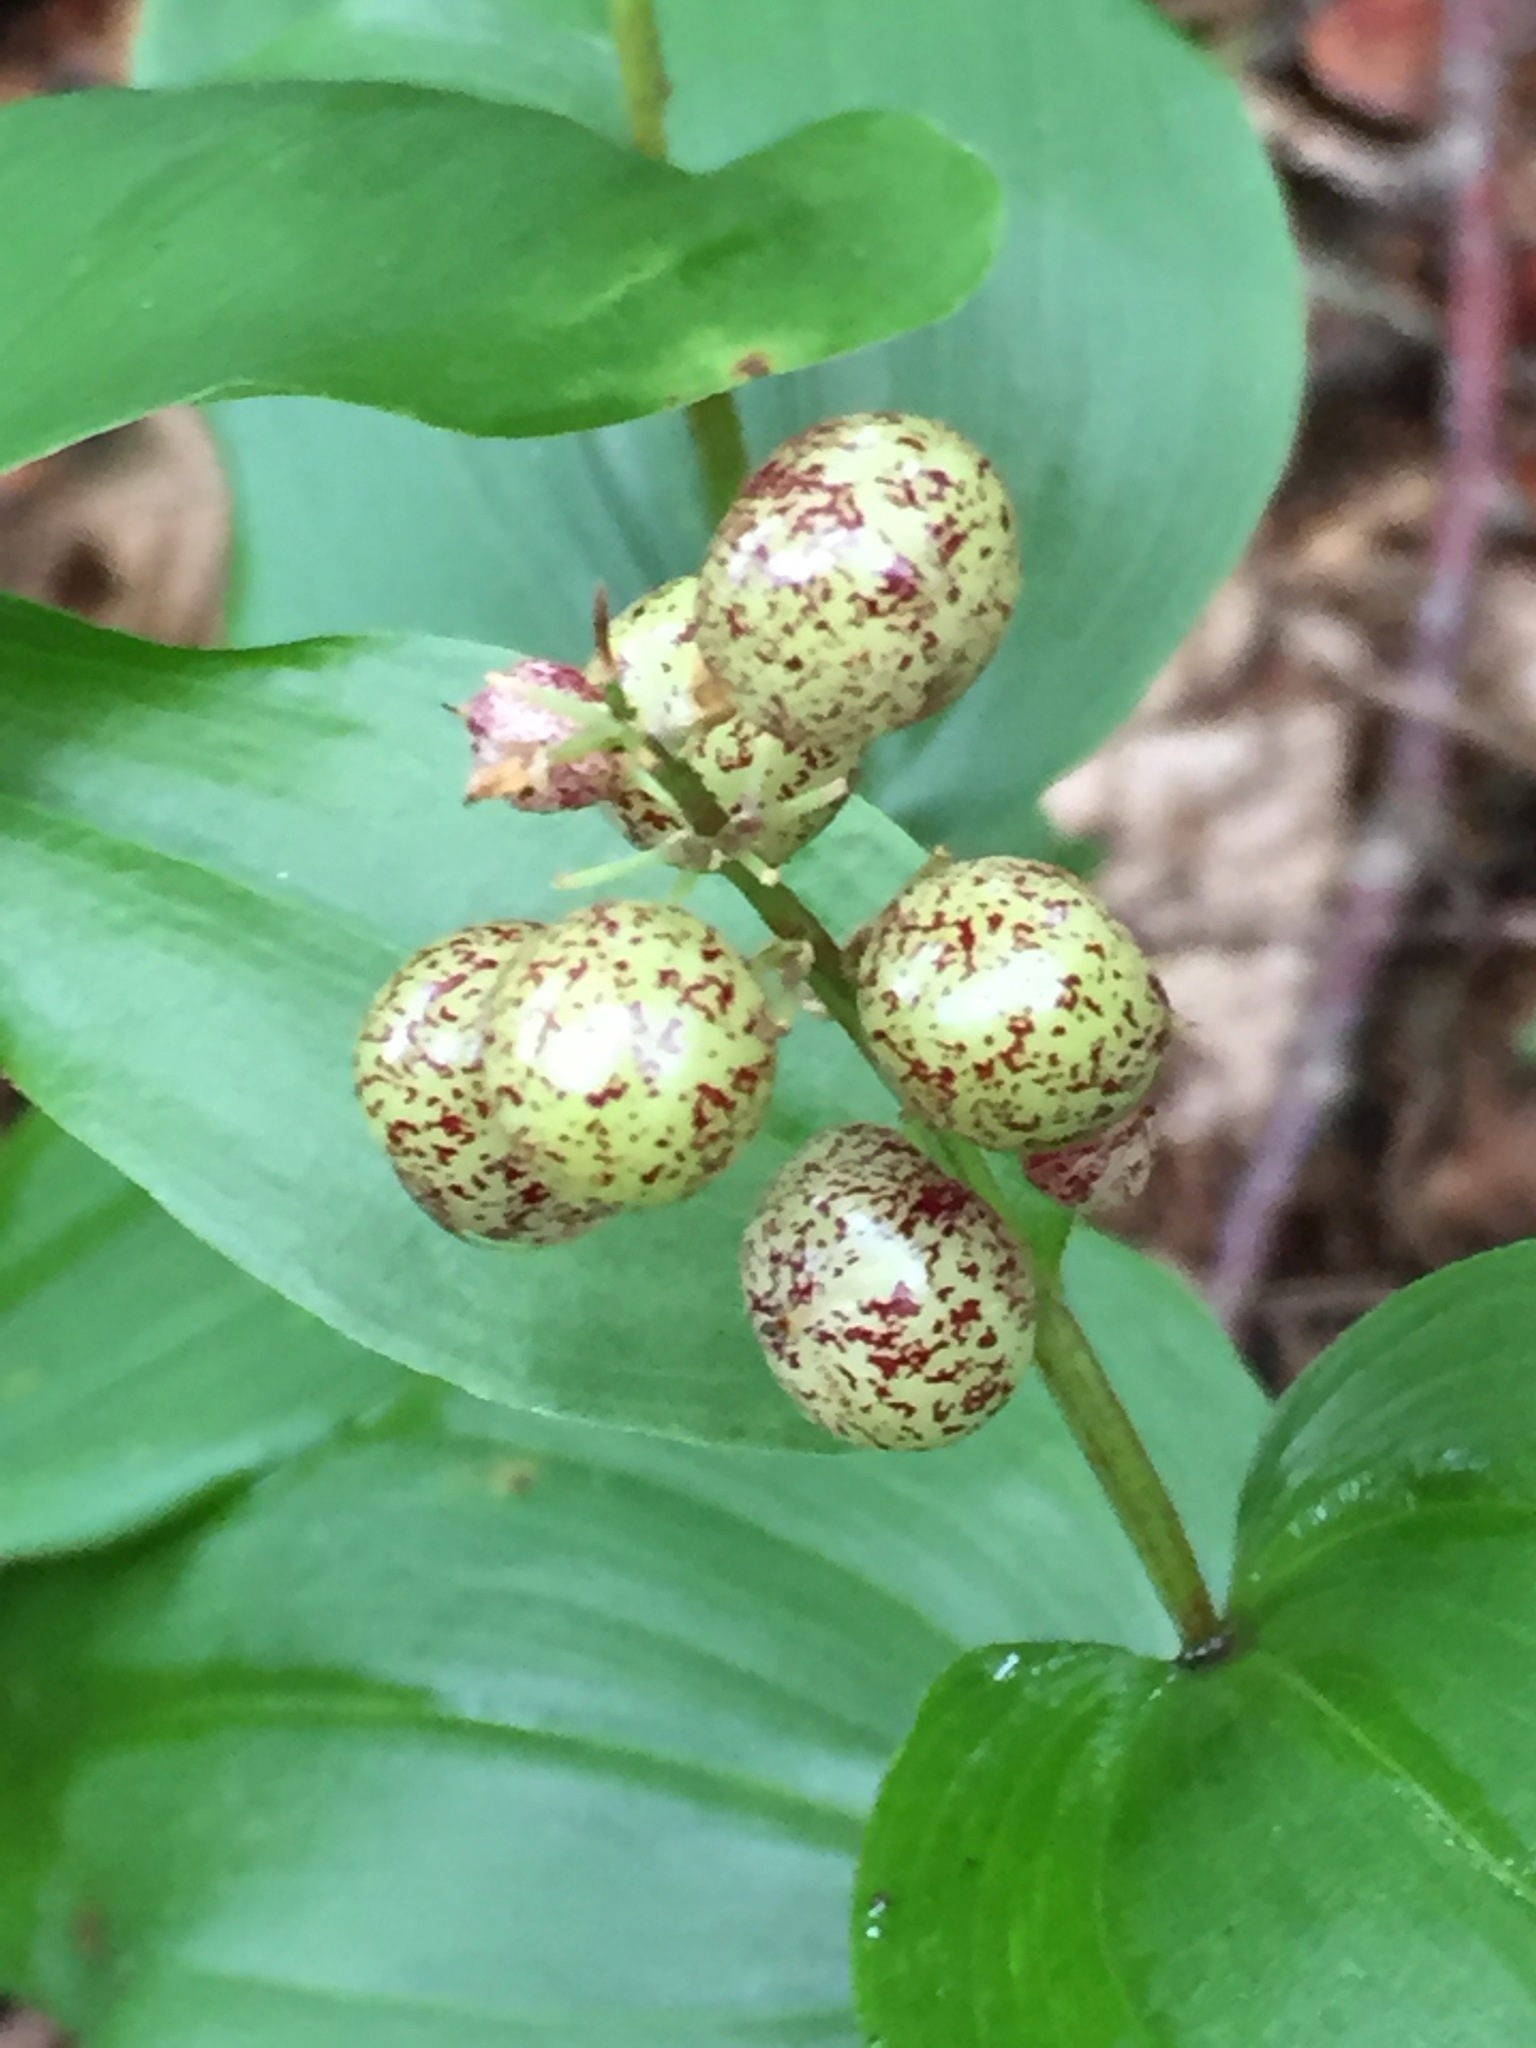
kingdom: Plantae
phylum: Tracheophyta
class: Liliopsida
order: Asparagales
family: Asparagaceae
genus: Maianthemum
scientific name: Maianthemum canadense
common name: False lily-of-the-valley
